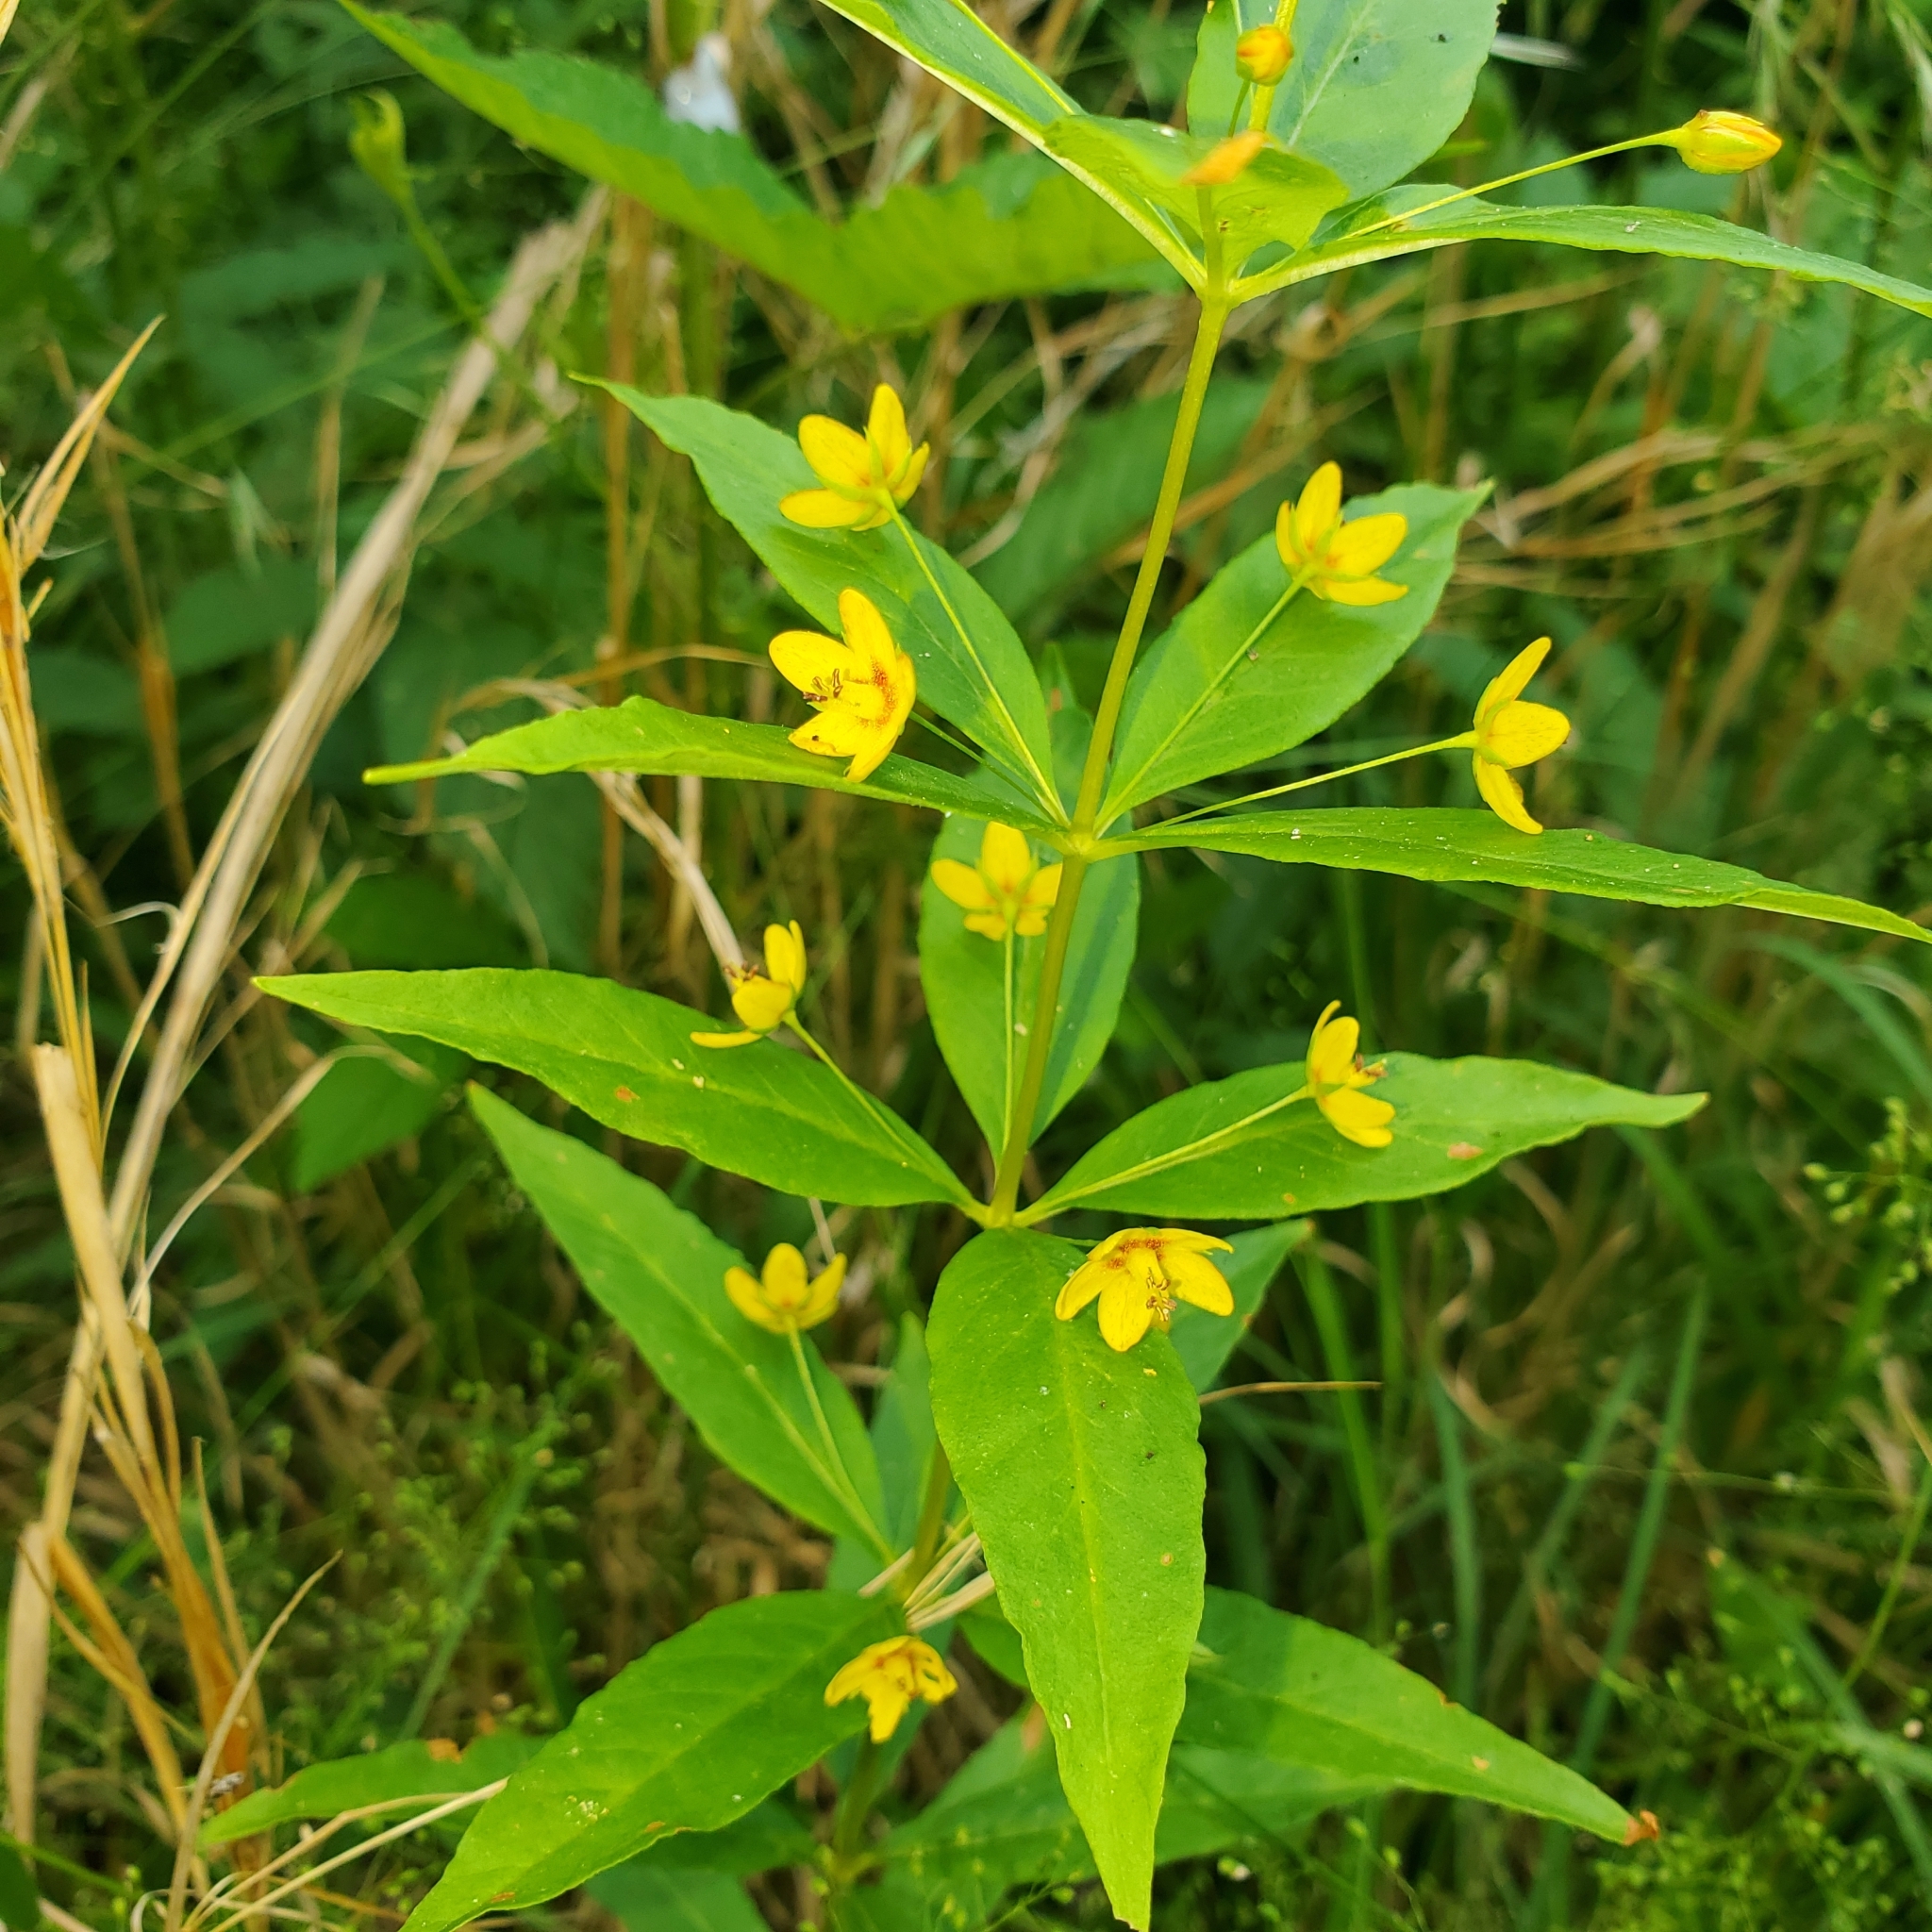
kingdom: Plantae
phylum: Tracheophyta
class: Magnoliopsida
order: Ericales
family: Primulaceae
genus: Lysimachia
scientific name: Lysimachia quadrifolia
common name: Whorled loosestrife
